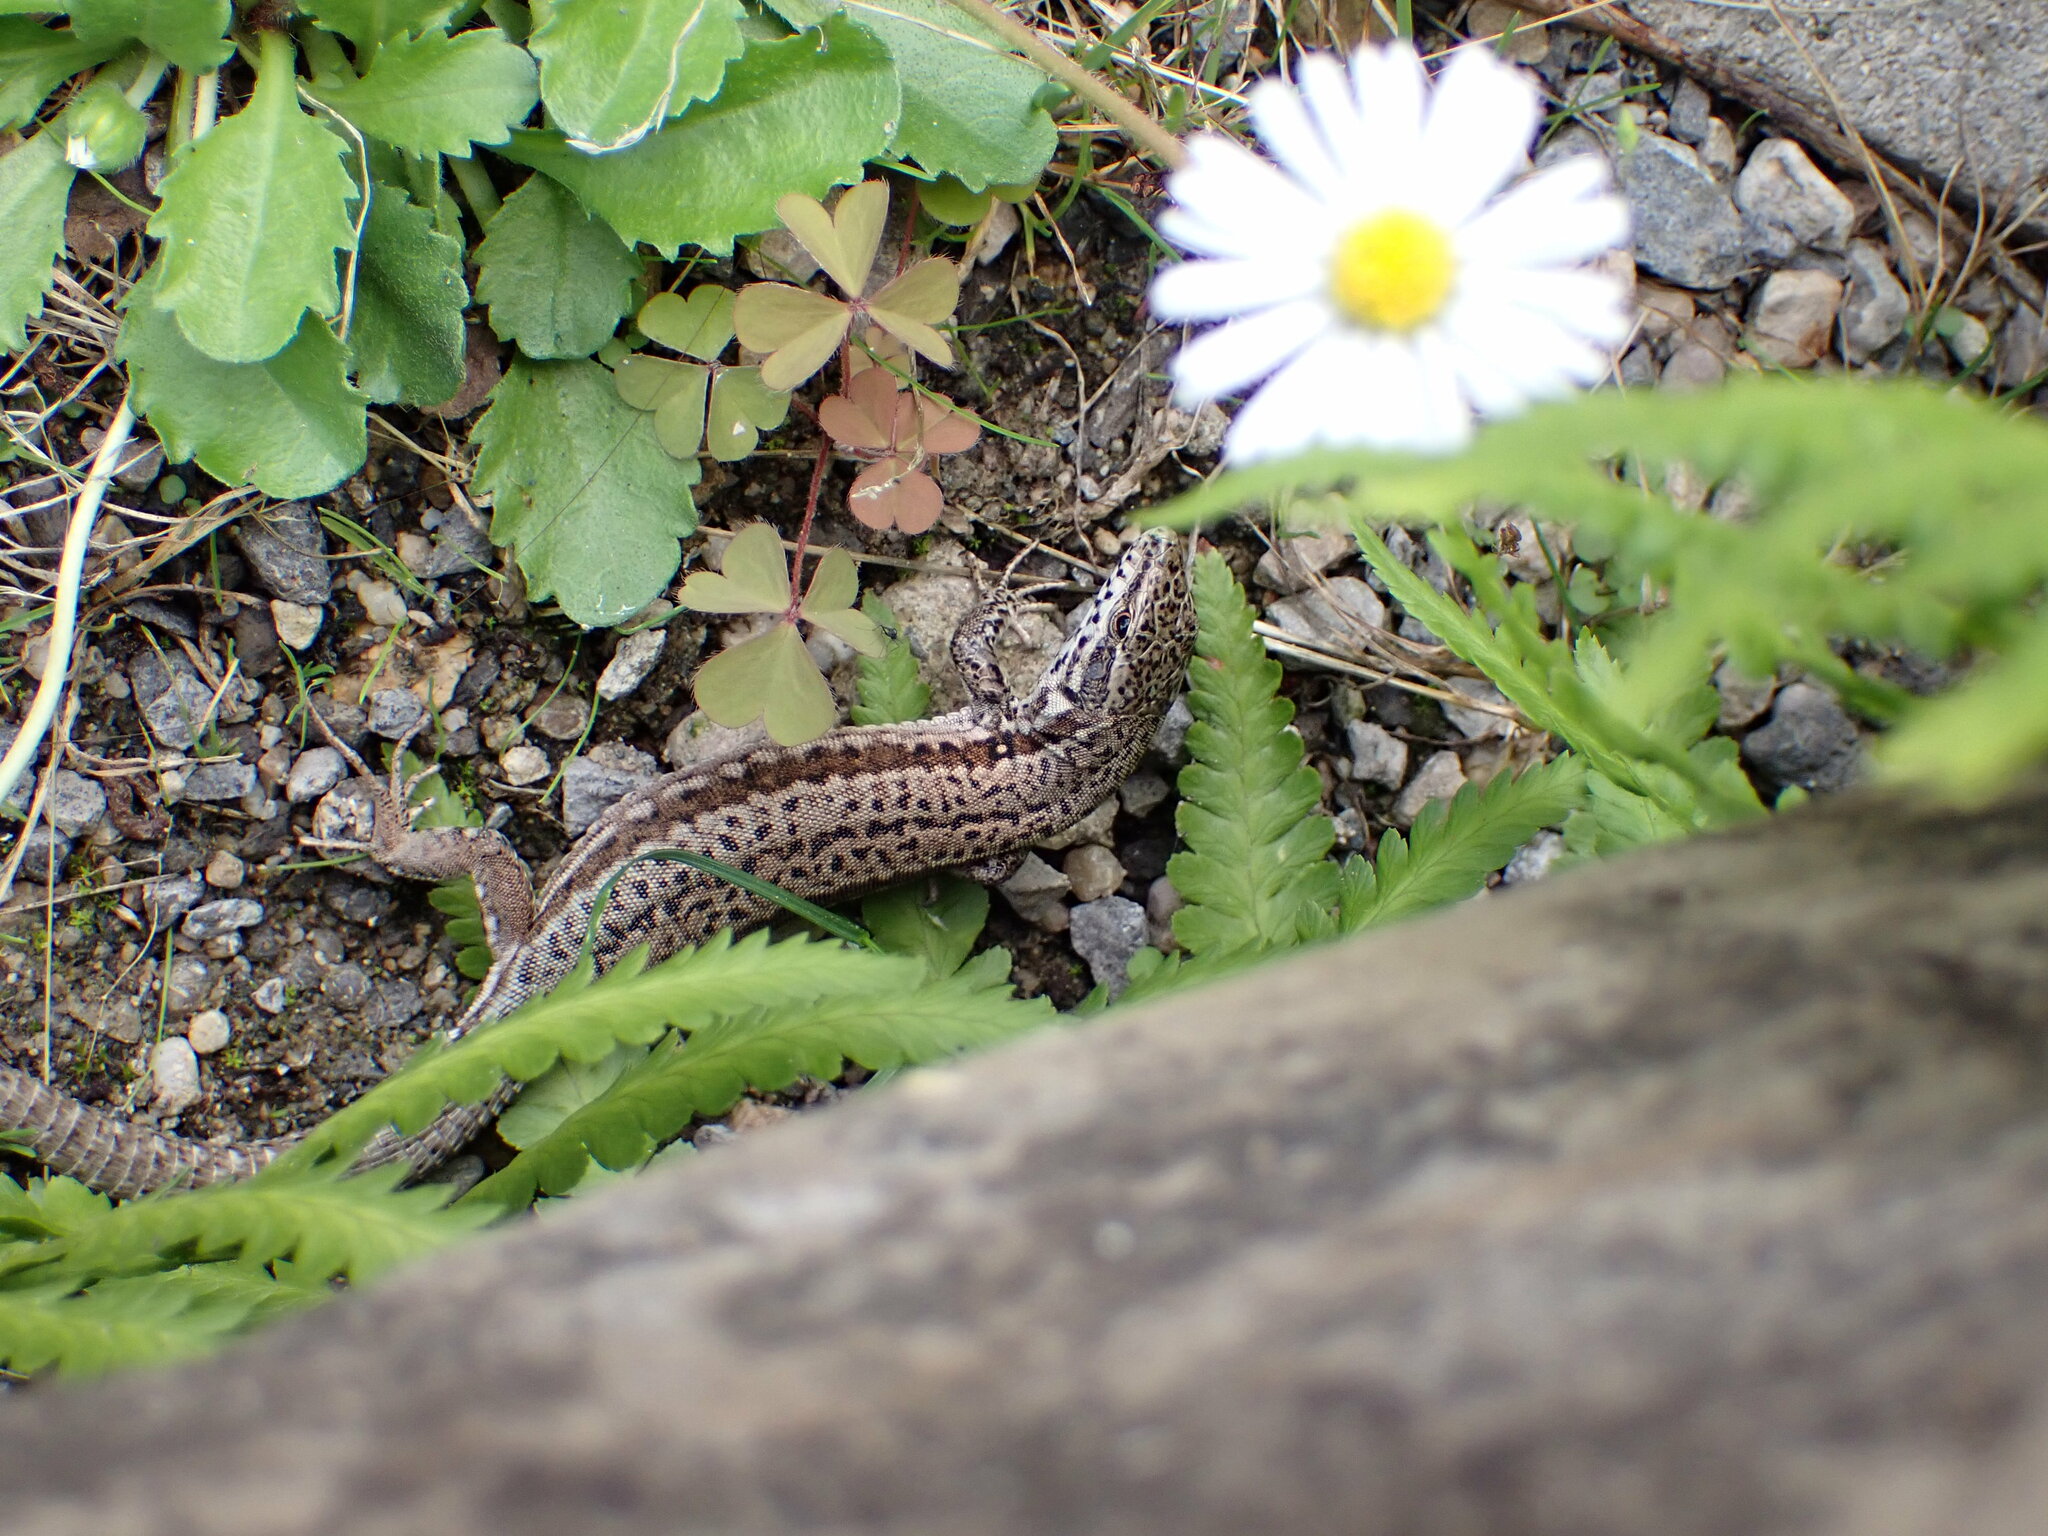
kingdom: Animalia
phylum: Chordata
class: Squamata
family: Lacertidae
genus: Podarcis
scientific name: Podarcis muralis
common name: Common wall lizard
